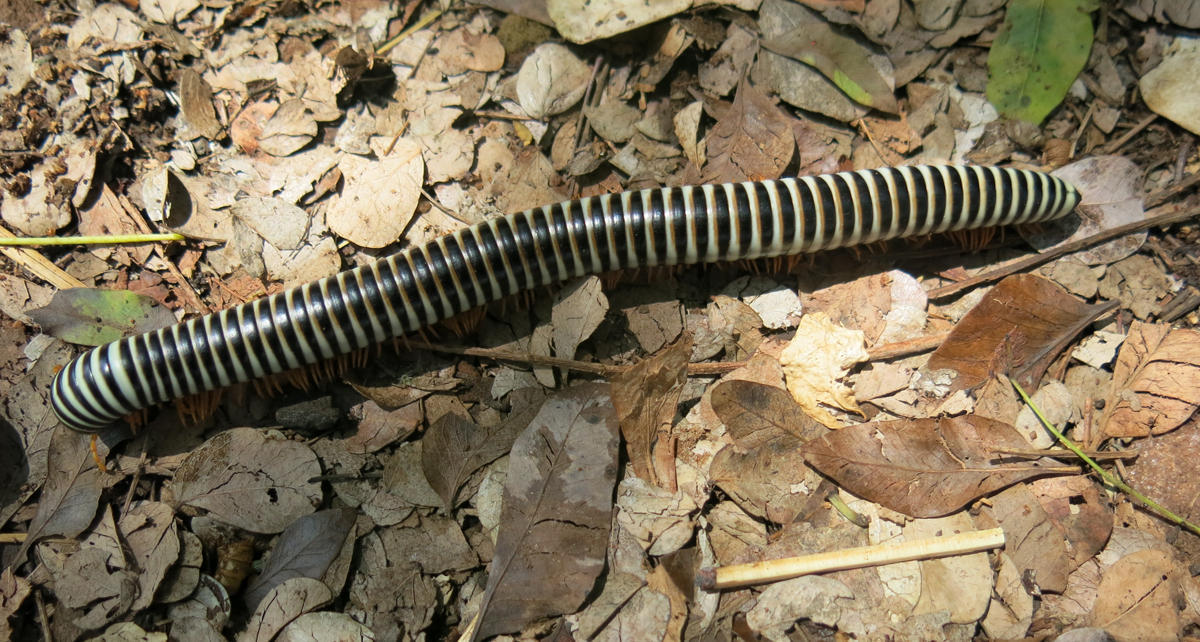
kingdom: Animalia
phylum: Arthropoda
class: Diplopoda
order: Spirostreptida
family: Spirostreptidae
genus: Doratogonus
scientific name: Doratogonus flavifilis
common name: Yellow-banded black millipede
